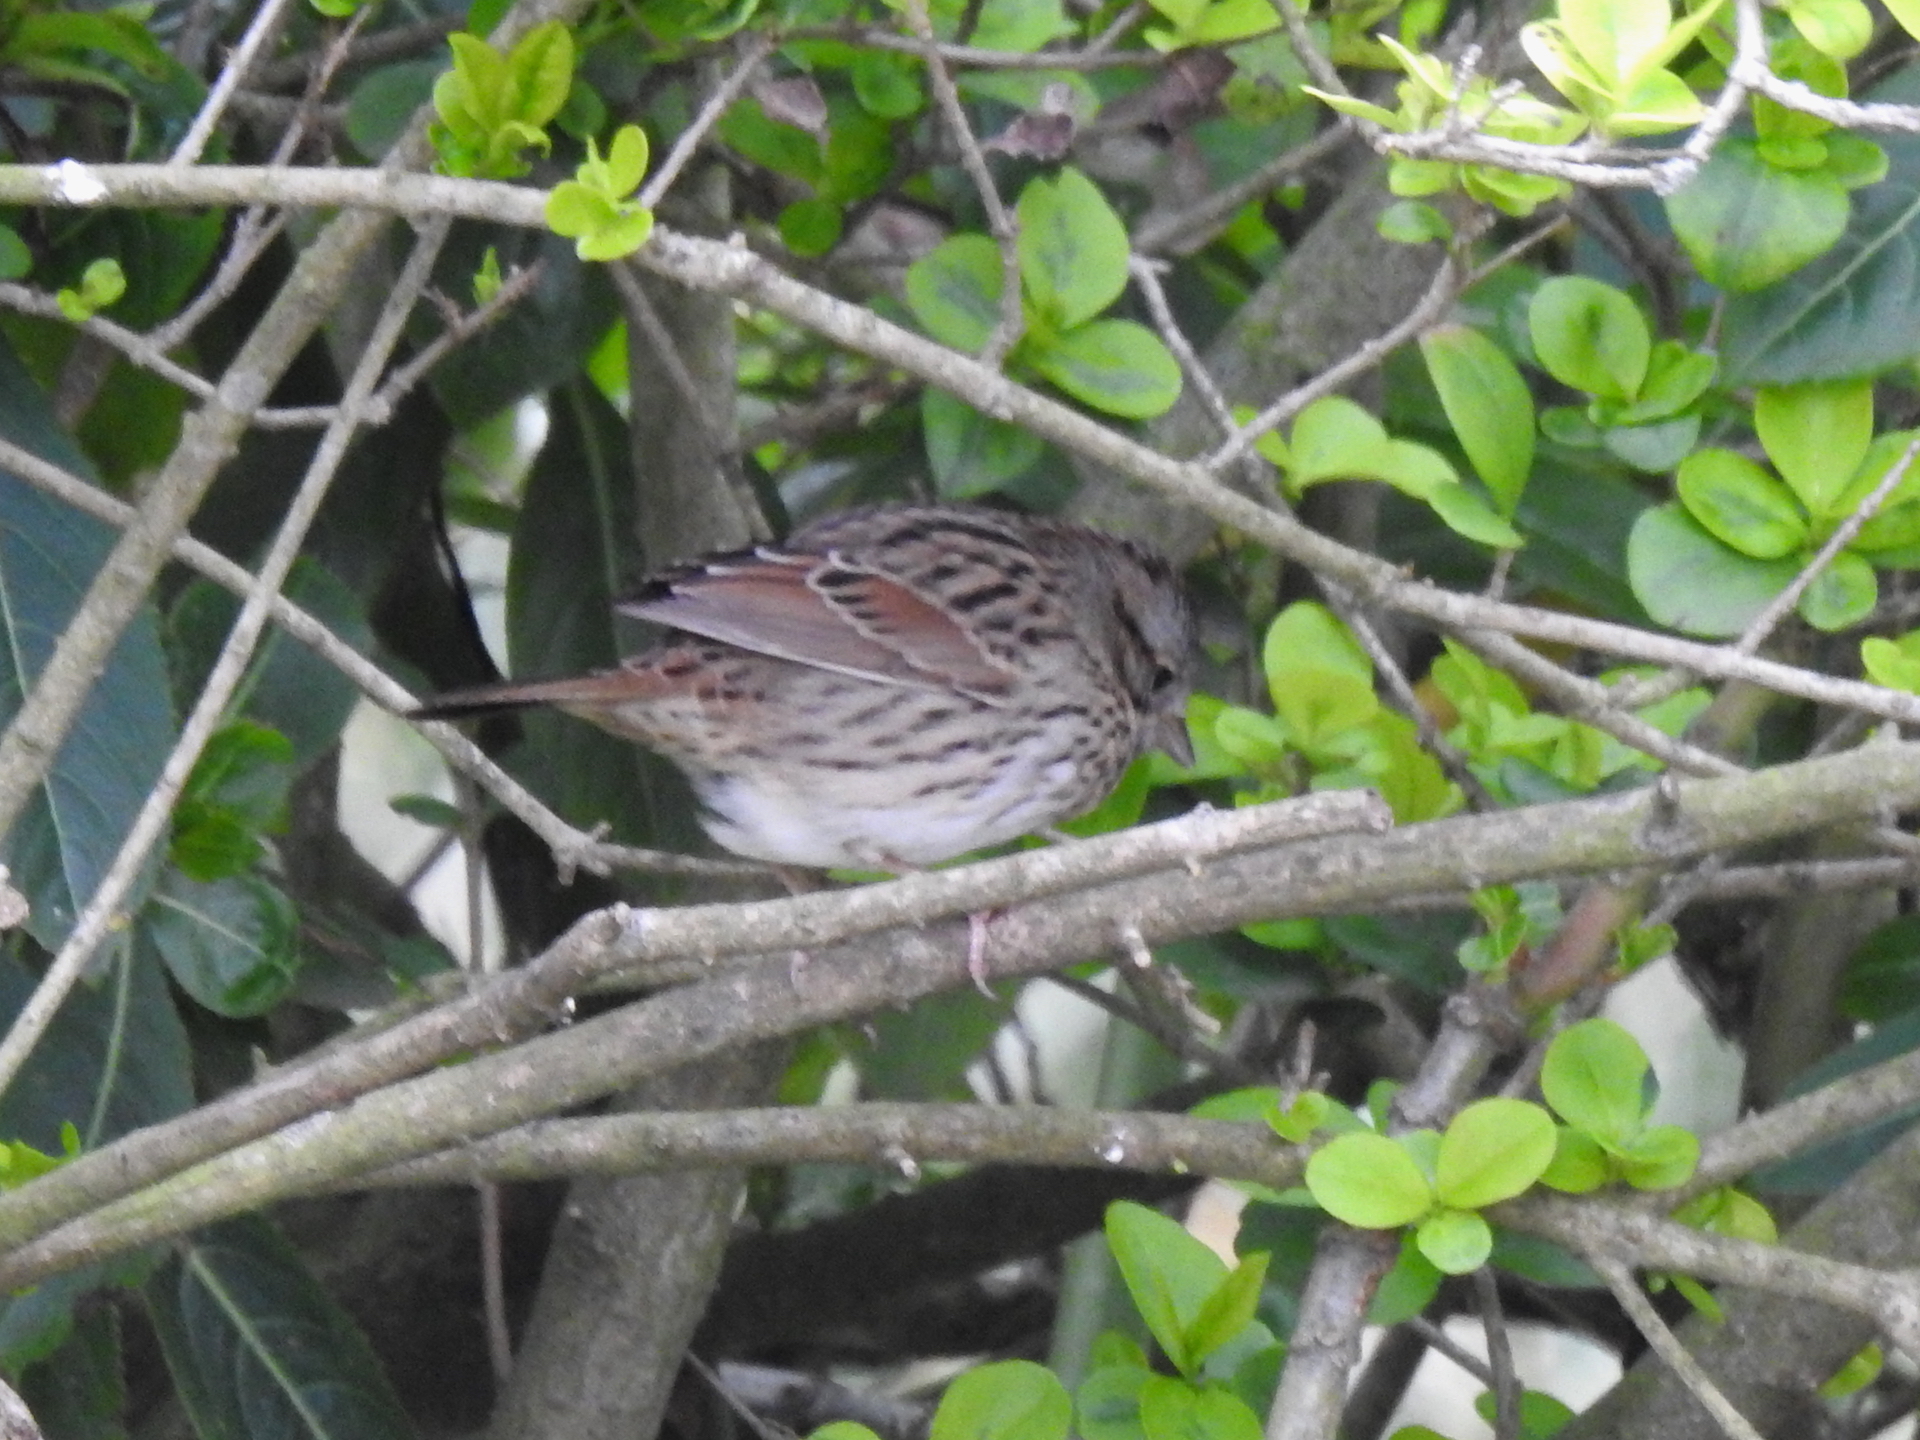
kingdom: Animalia
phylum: Chordata
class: Aves
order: Passeriformes
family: Passerellidae
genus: Melospiza
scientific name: Melospiza lincolnii
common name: Lincoln's sparrow
